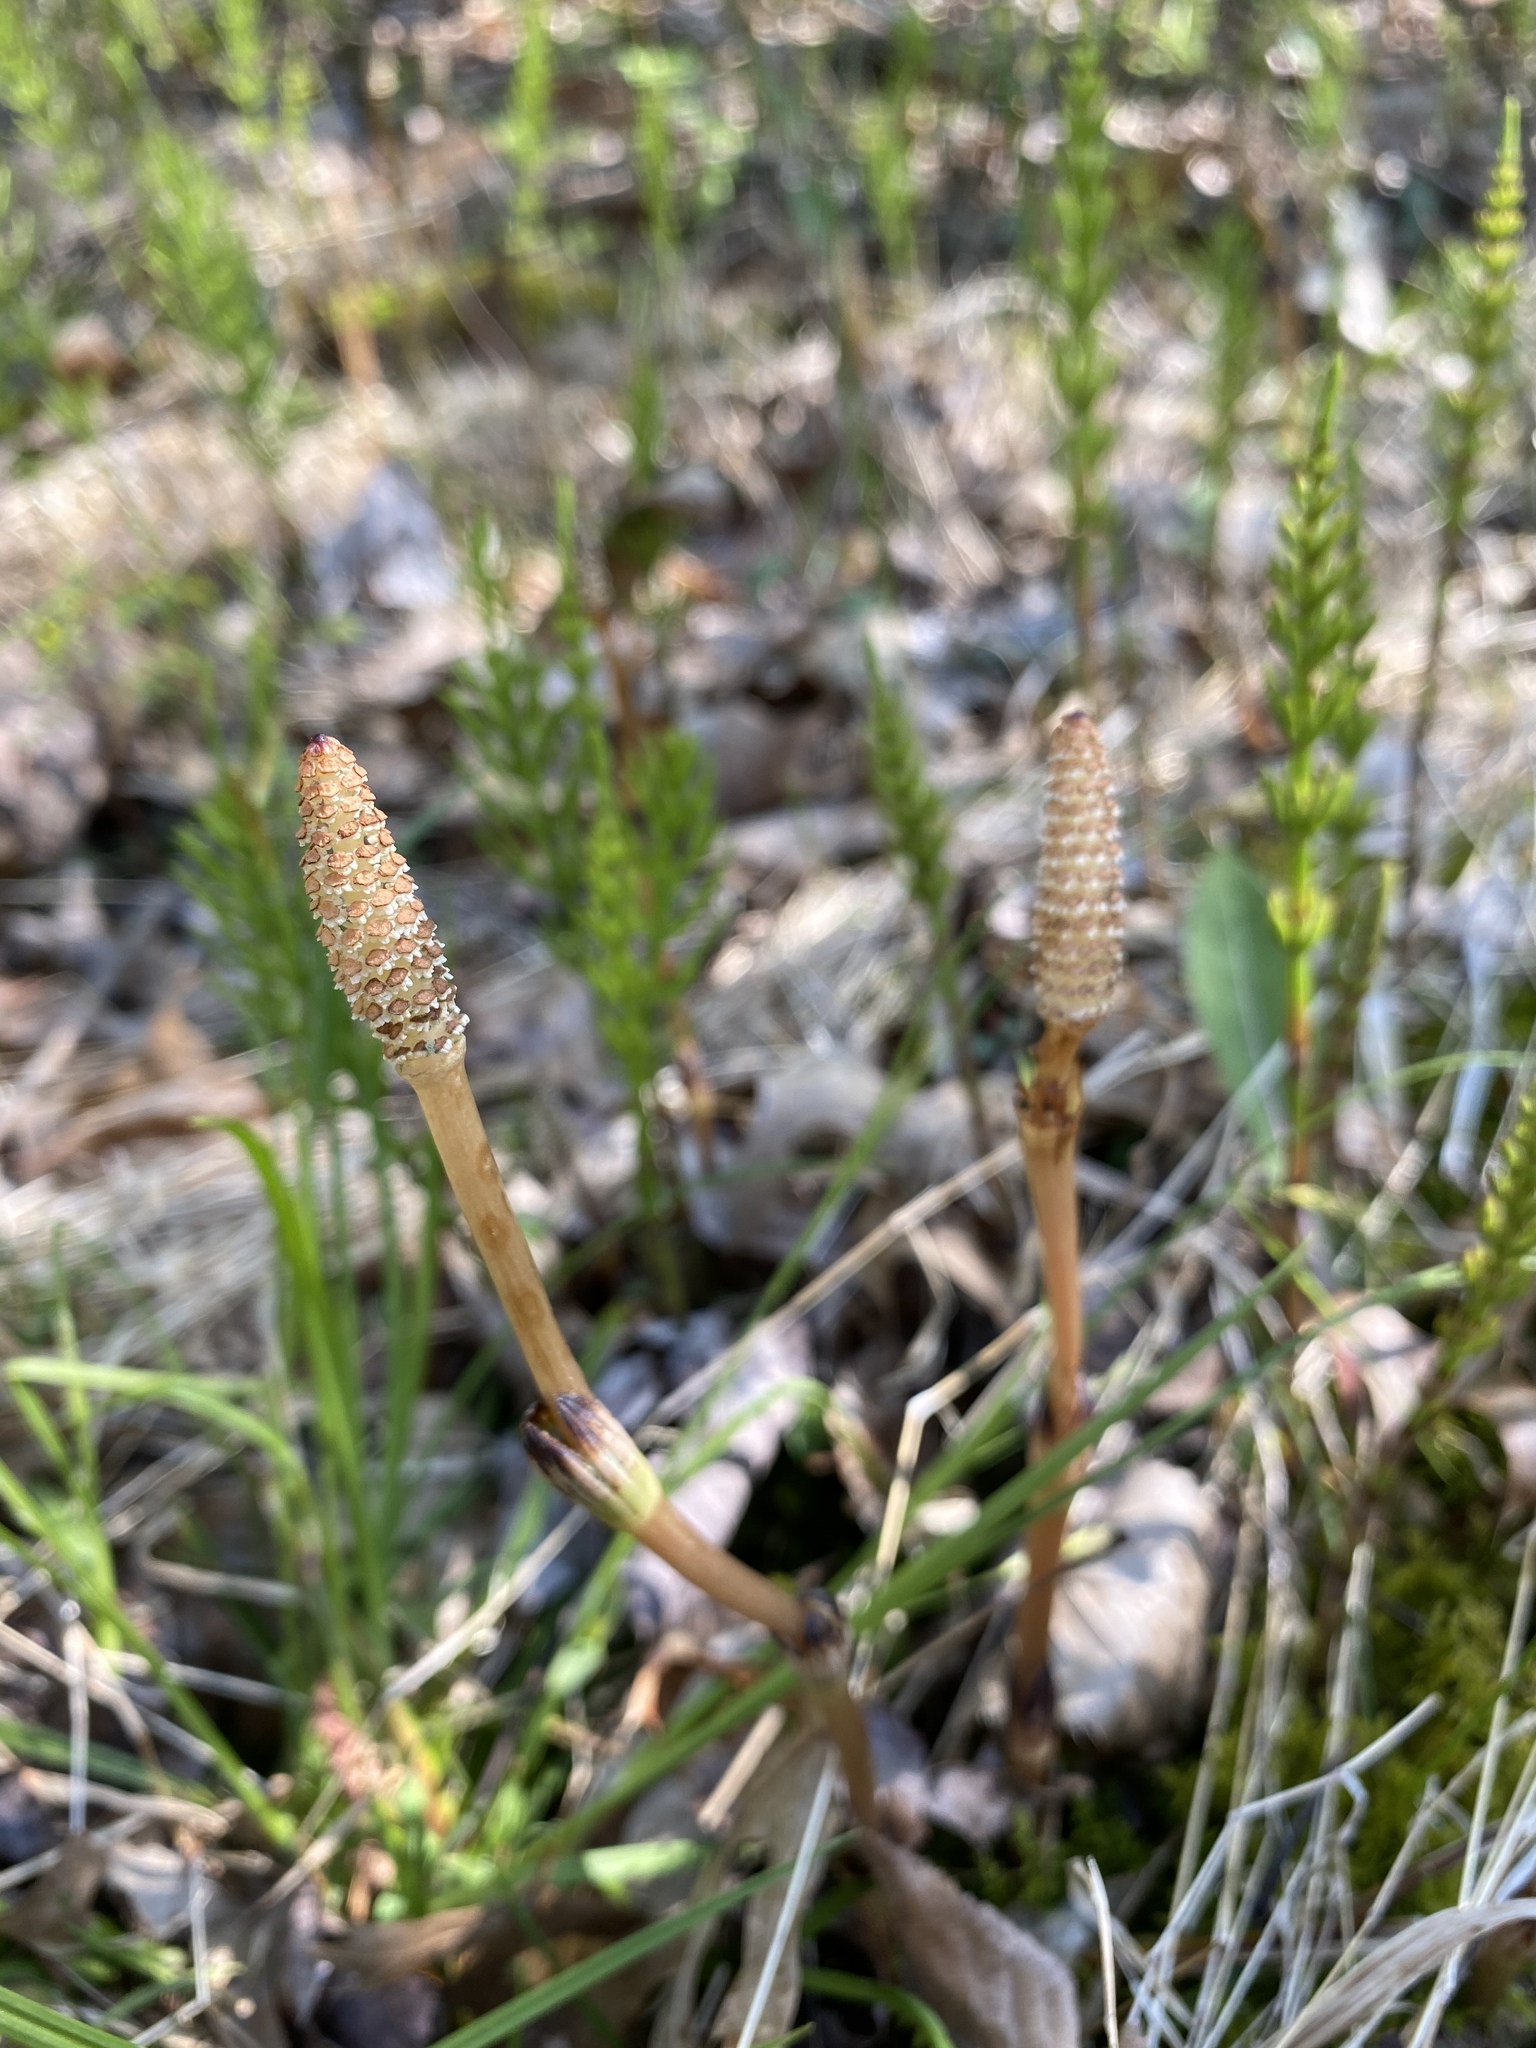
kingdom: Plantae
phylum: Tracheophyta
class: Polypodiopsida
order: Equisetales
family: Equisetaceae
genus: Equisetum
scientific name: Equisetum arvense
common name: Field horsetail
